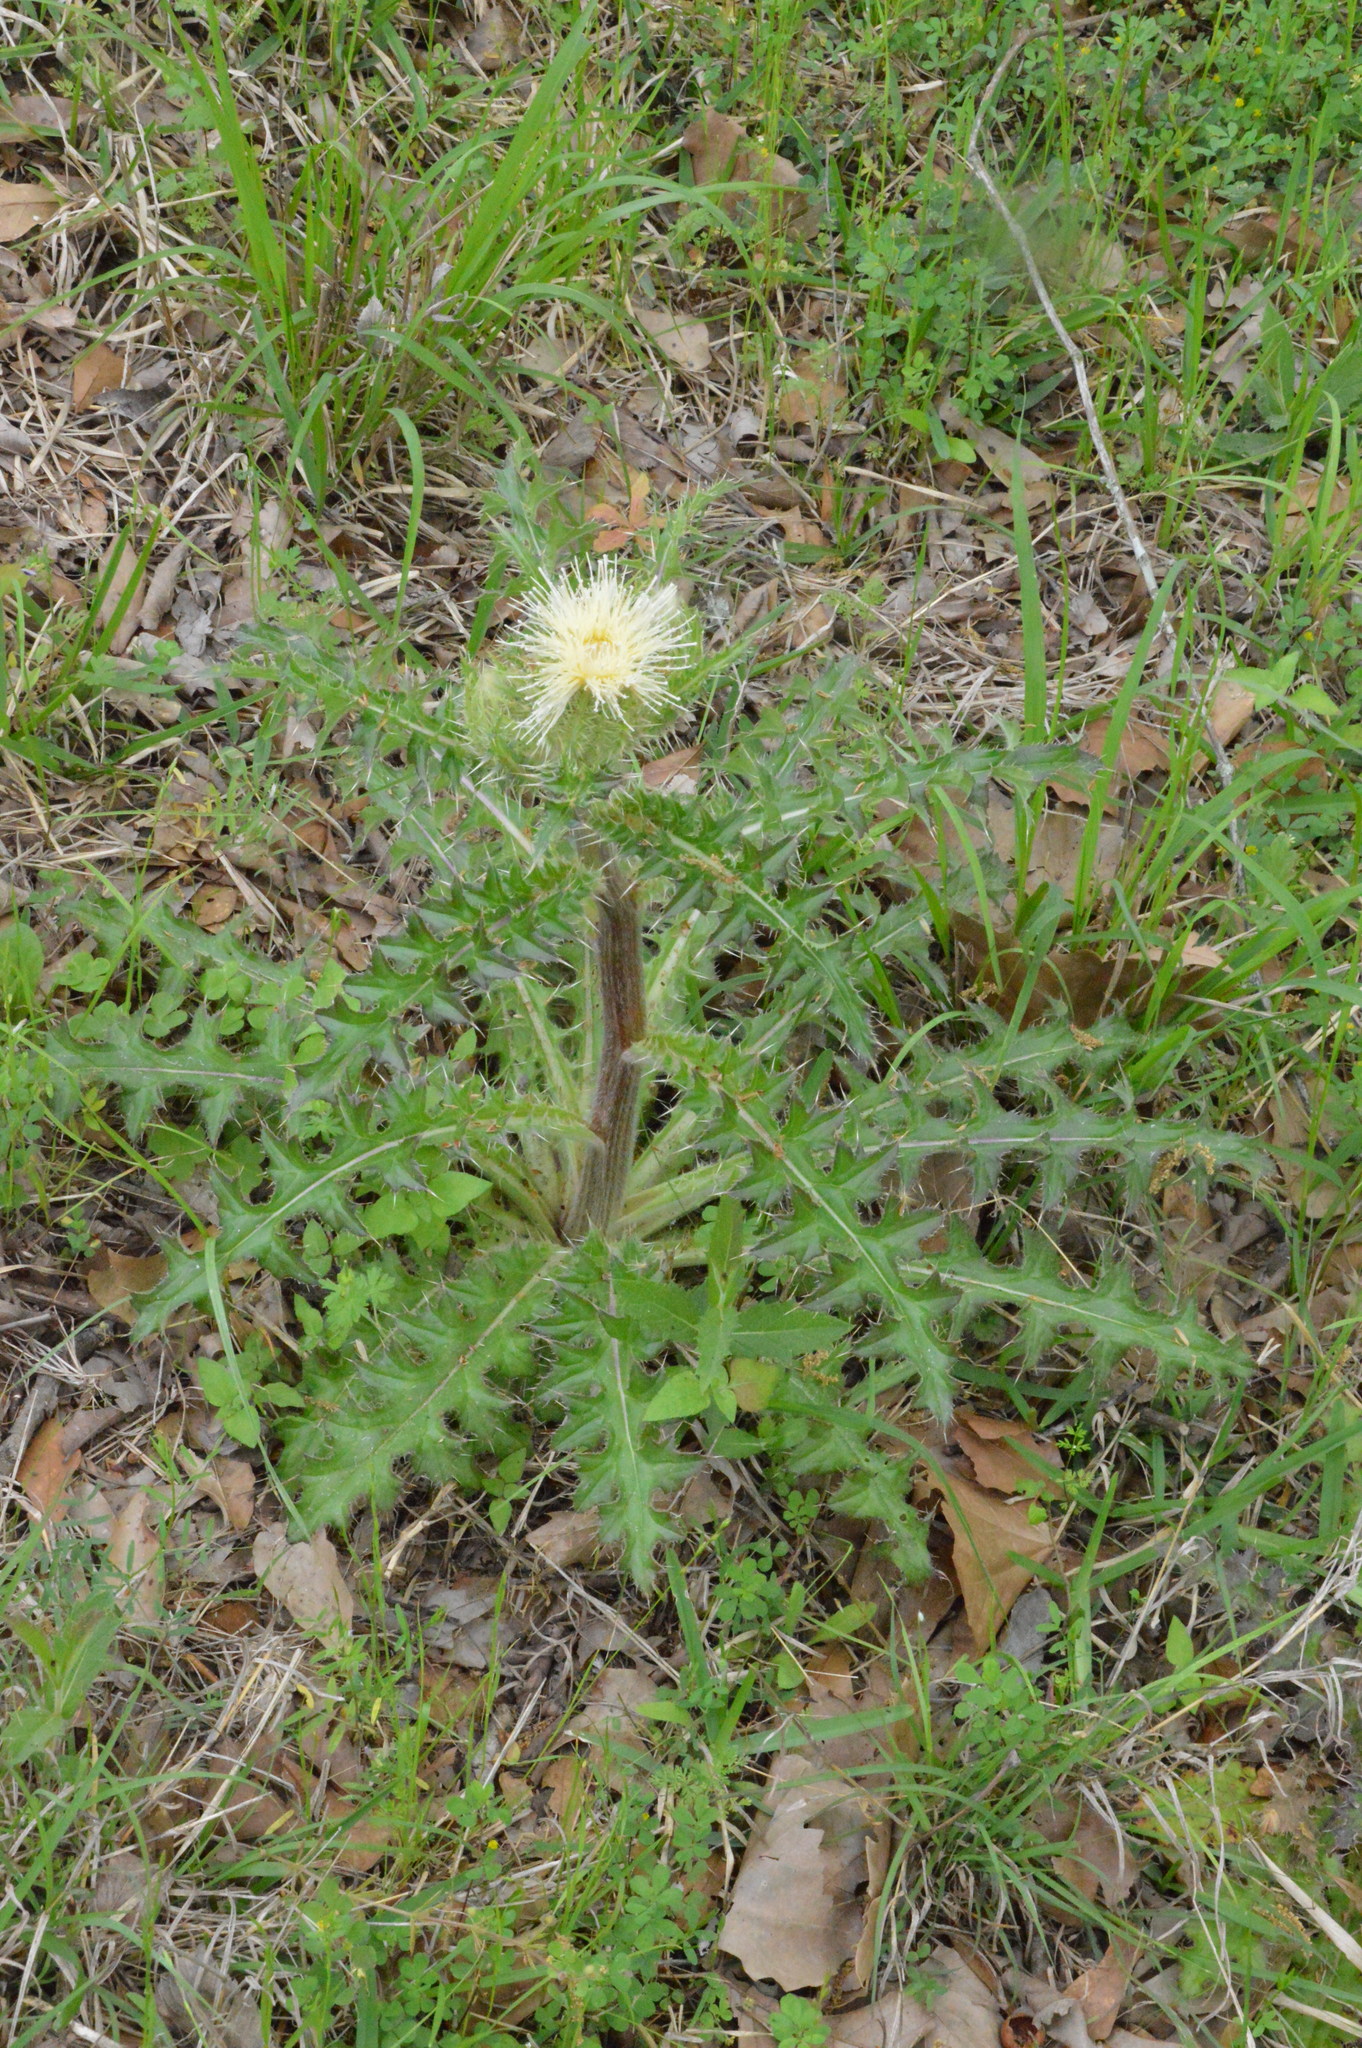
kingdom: Plantae
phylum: Tracheophyta
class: Magnoliopsida
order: Asterales
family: Asteraceae
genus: Cirsium
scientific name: Cirsium horridulum
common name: Bristly thistle
